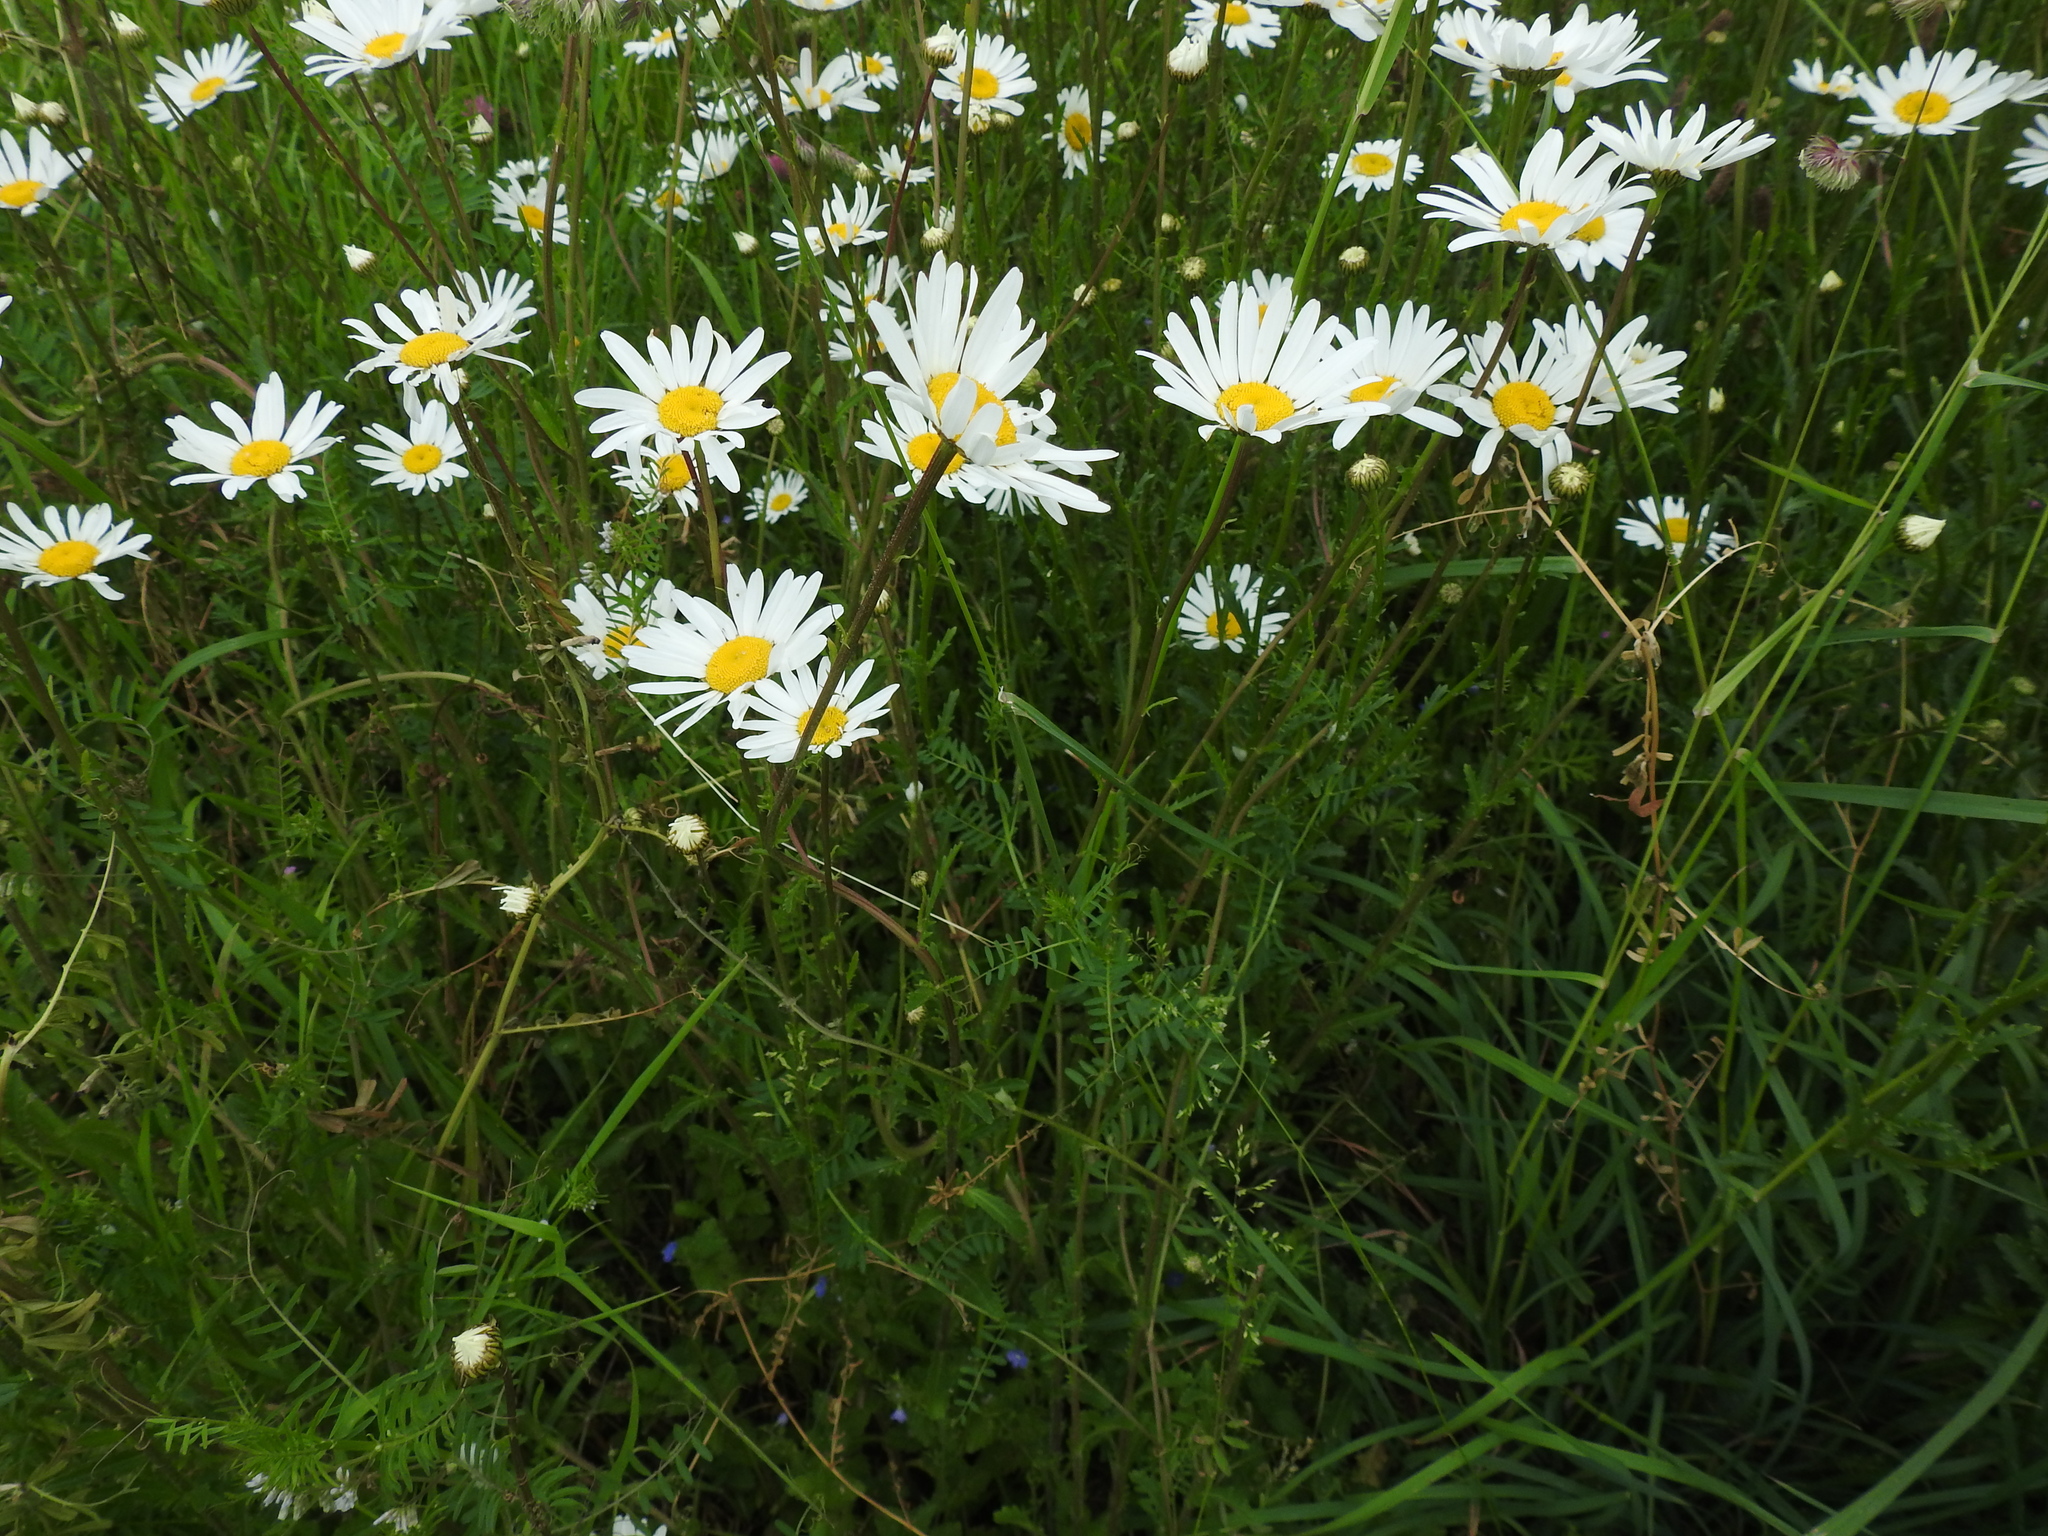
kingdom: Plantae
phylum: Tracheophyta
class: Magnoliopsida
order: Asterales
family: Asteraceae
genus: Leucanthemum
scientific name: Leucanthemum vulgare
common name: Oxeye daisy
